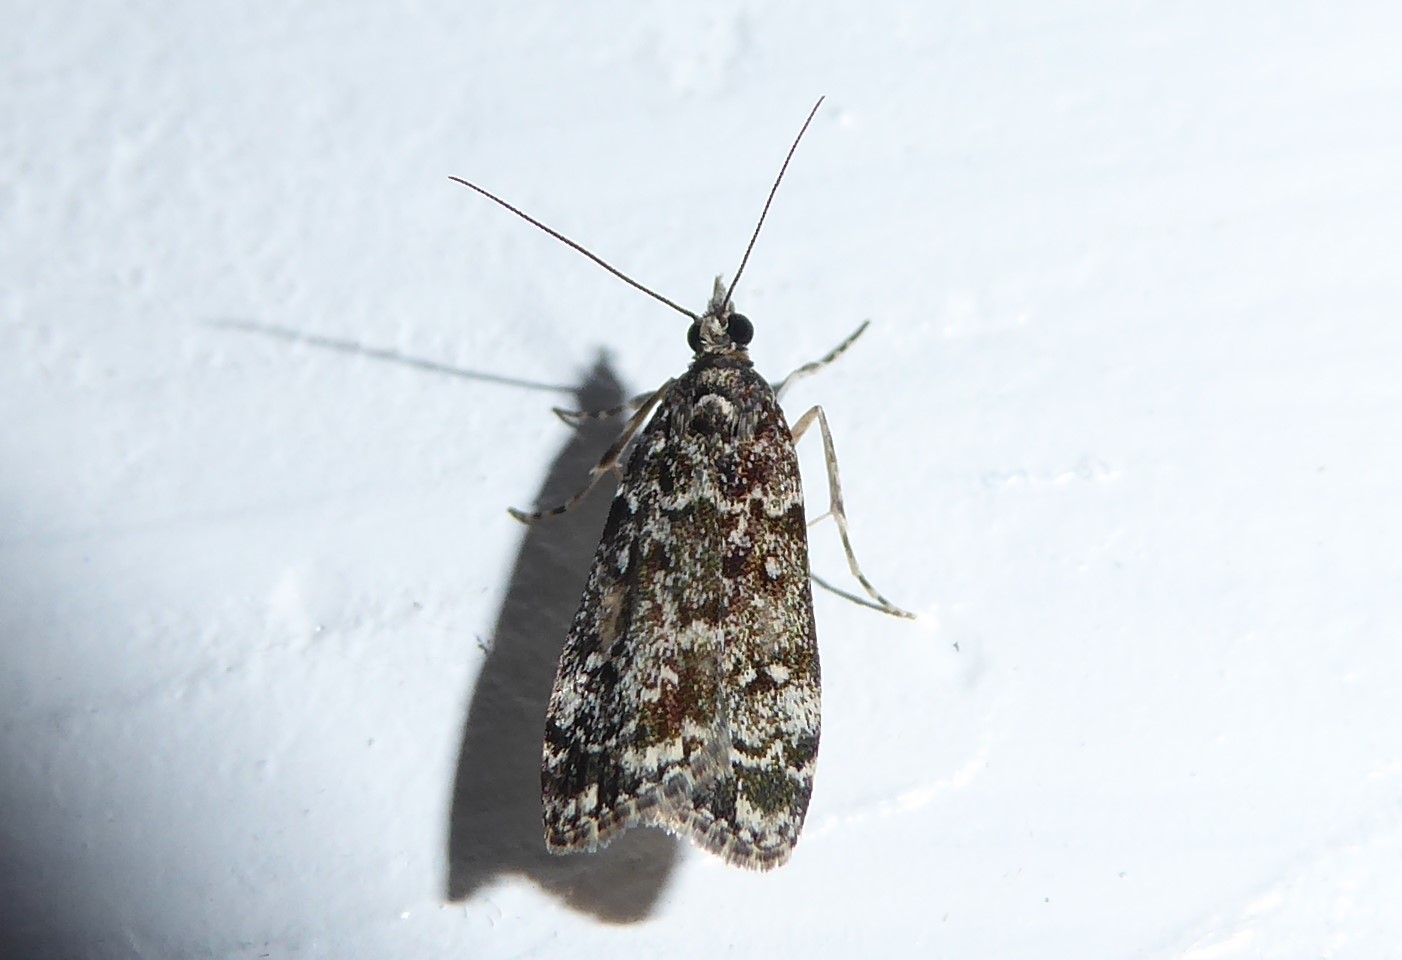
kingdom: Animalia
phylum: Arthropoda
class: Insecta
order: Lepidoptera
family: Crambidae
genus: Eudonia
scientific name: Eudonia philerga
